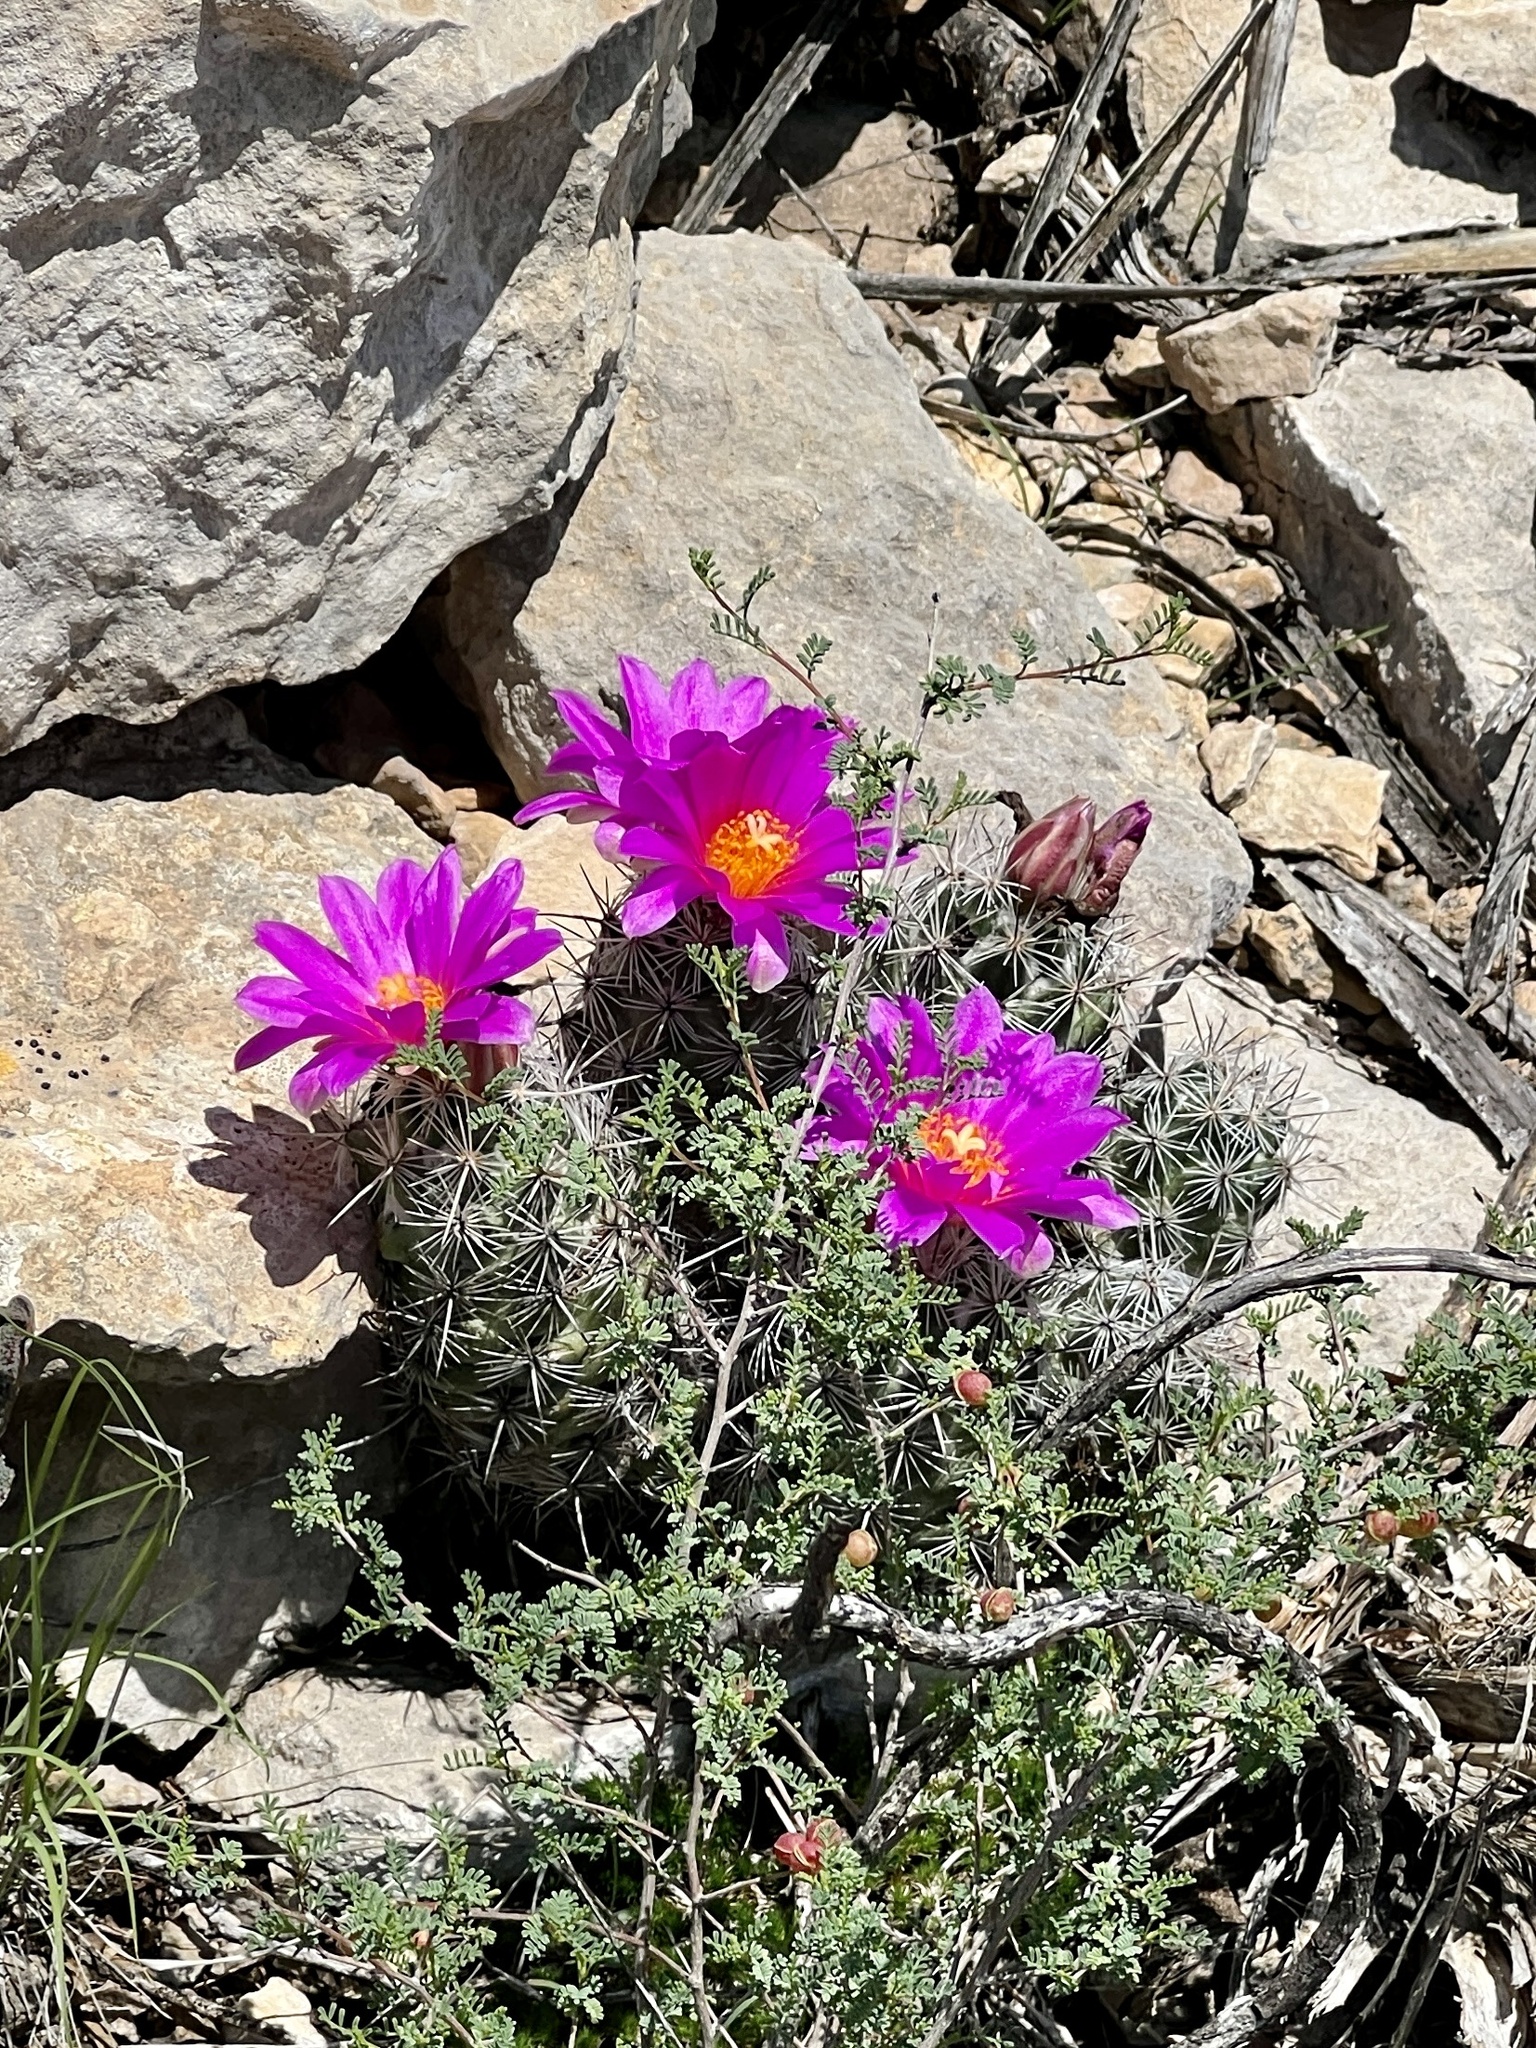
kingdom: Plantae
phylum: Tracheophyta
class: Magnoliopsida
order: Caryophyllales
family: Cactaceae
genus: Cochemiea
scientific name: Cochemiea conoidea
